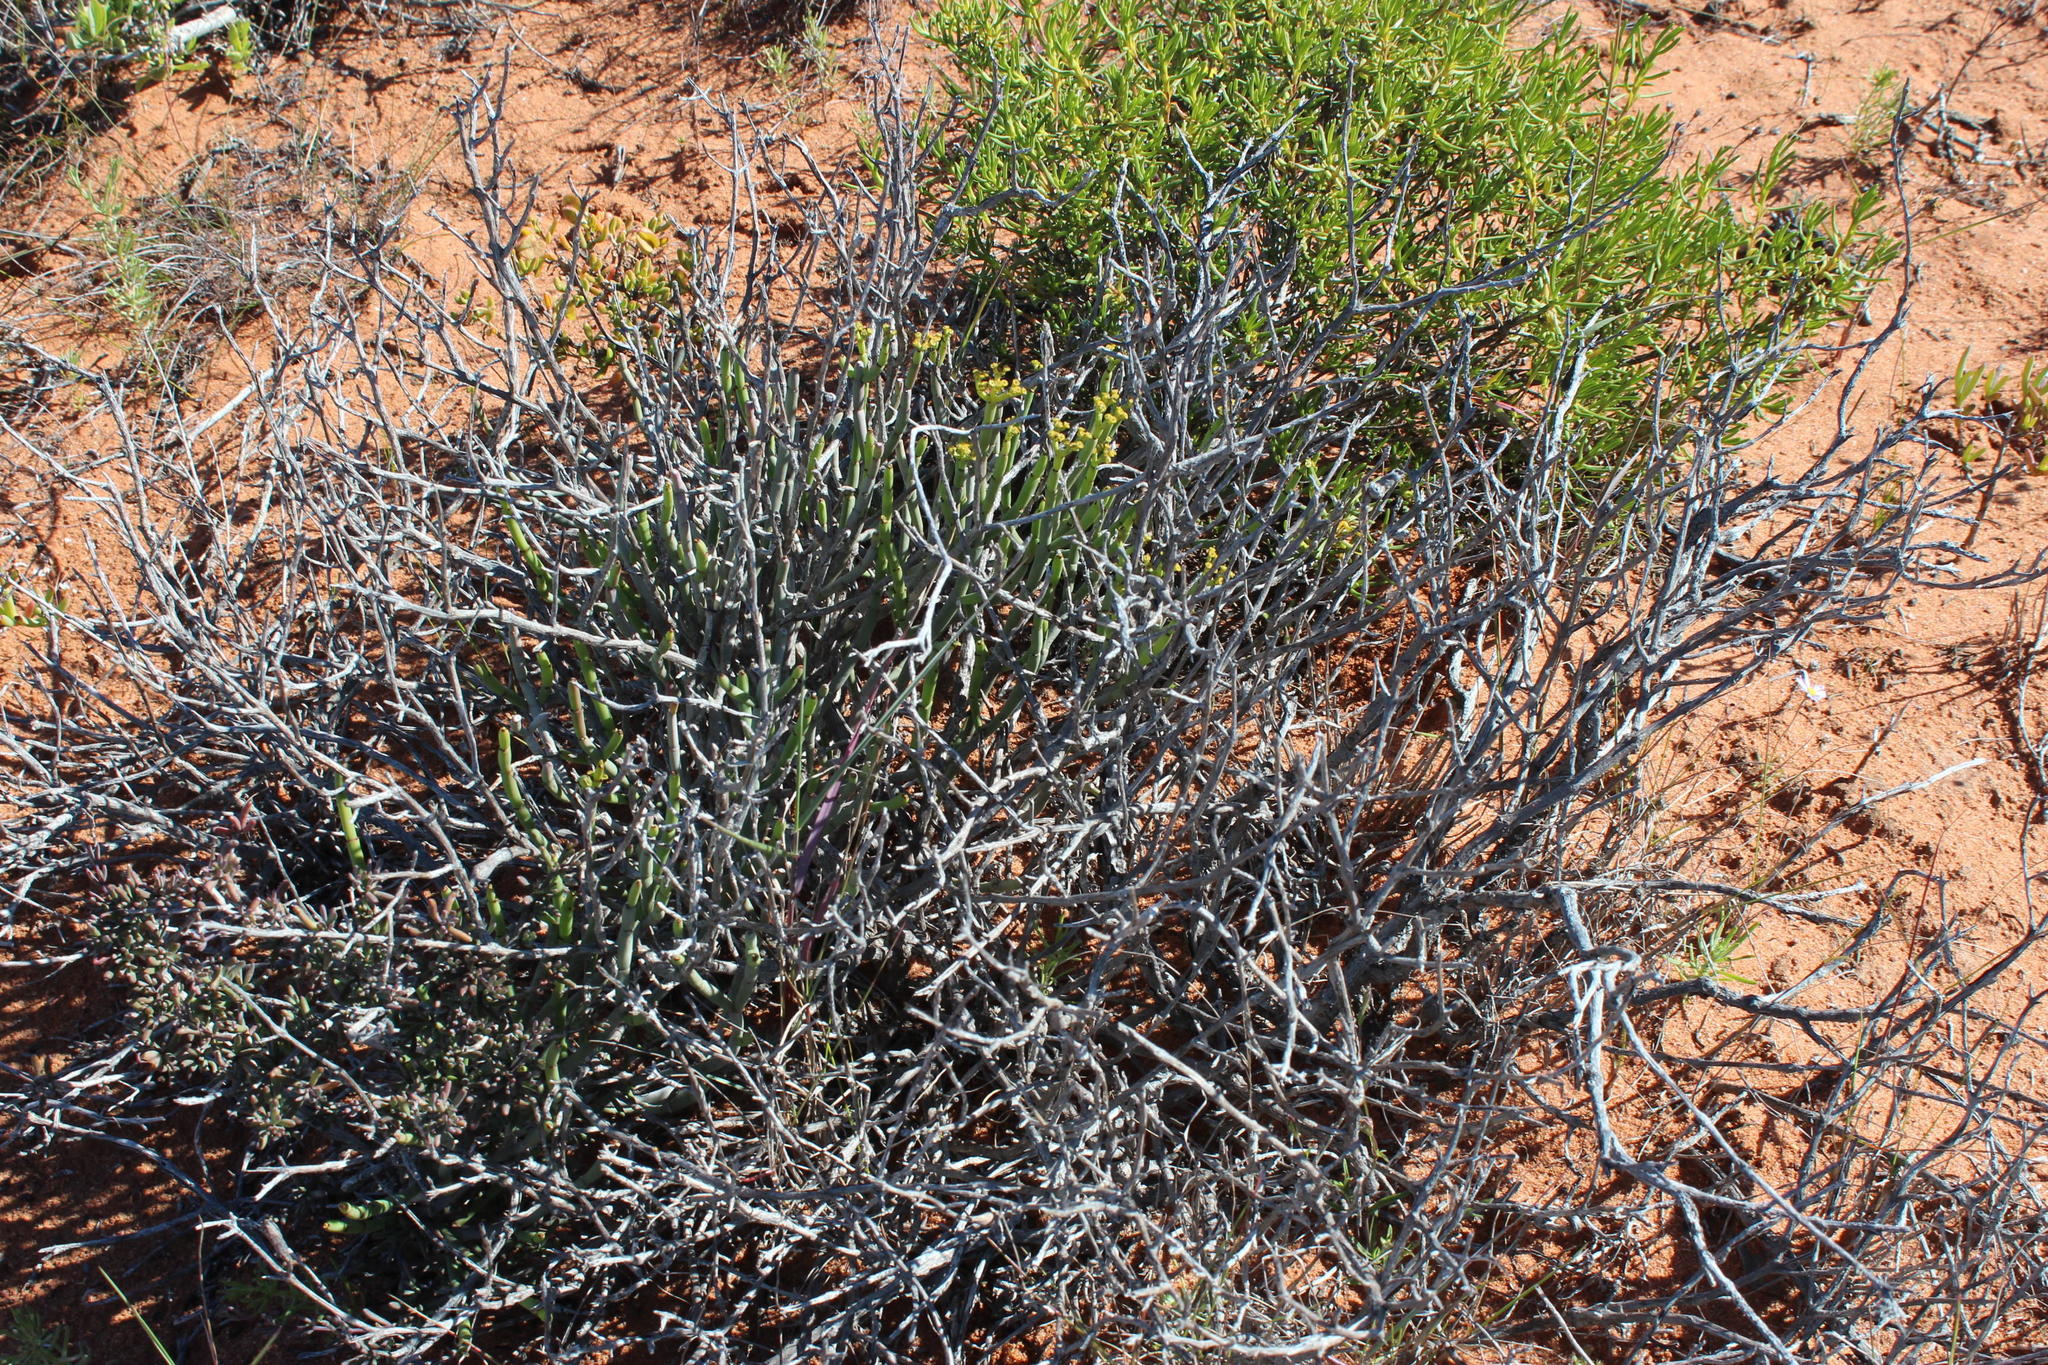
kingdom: Plantae
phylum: Tracheophyta
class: Magnoliopsida
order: Malpighiales
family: Euphorbiaceae
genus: Euphorbia
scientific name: Euphorbia burmanni
